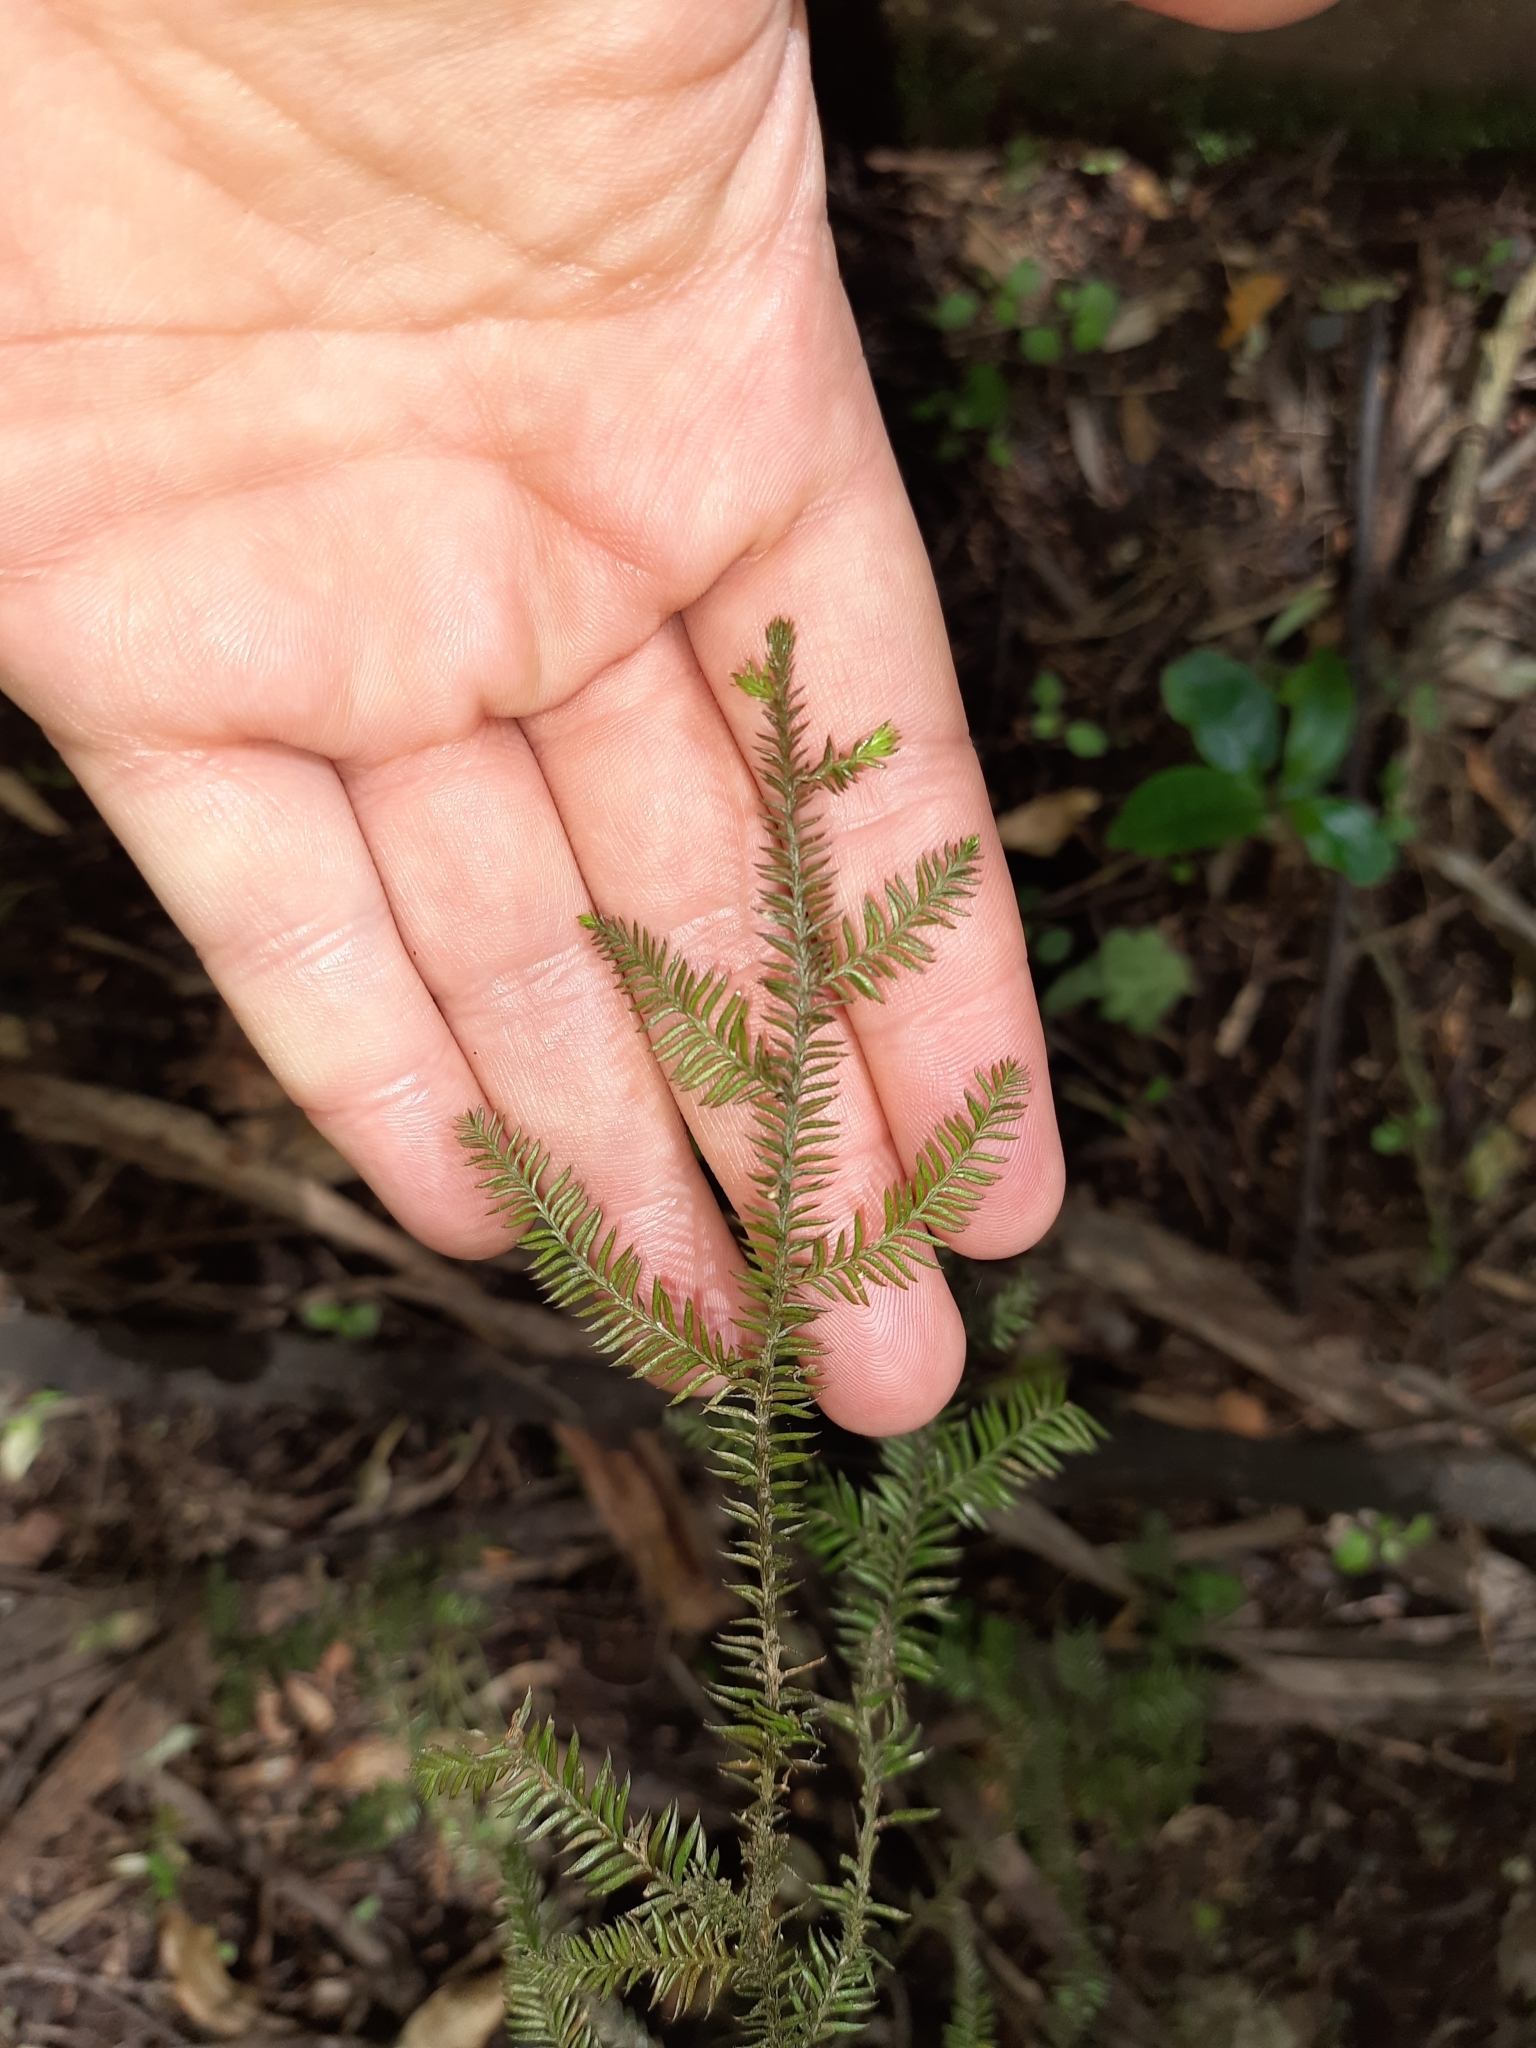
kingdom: Plantae
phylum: Tracheophyta
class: Pinopsida
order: Pinales
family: Podocarpaceae
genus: Dacrycarpus
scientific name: Dacrycarpus dacrydioides
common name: White pine
